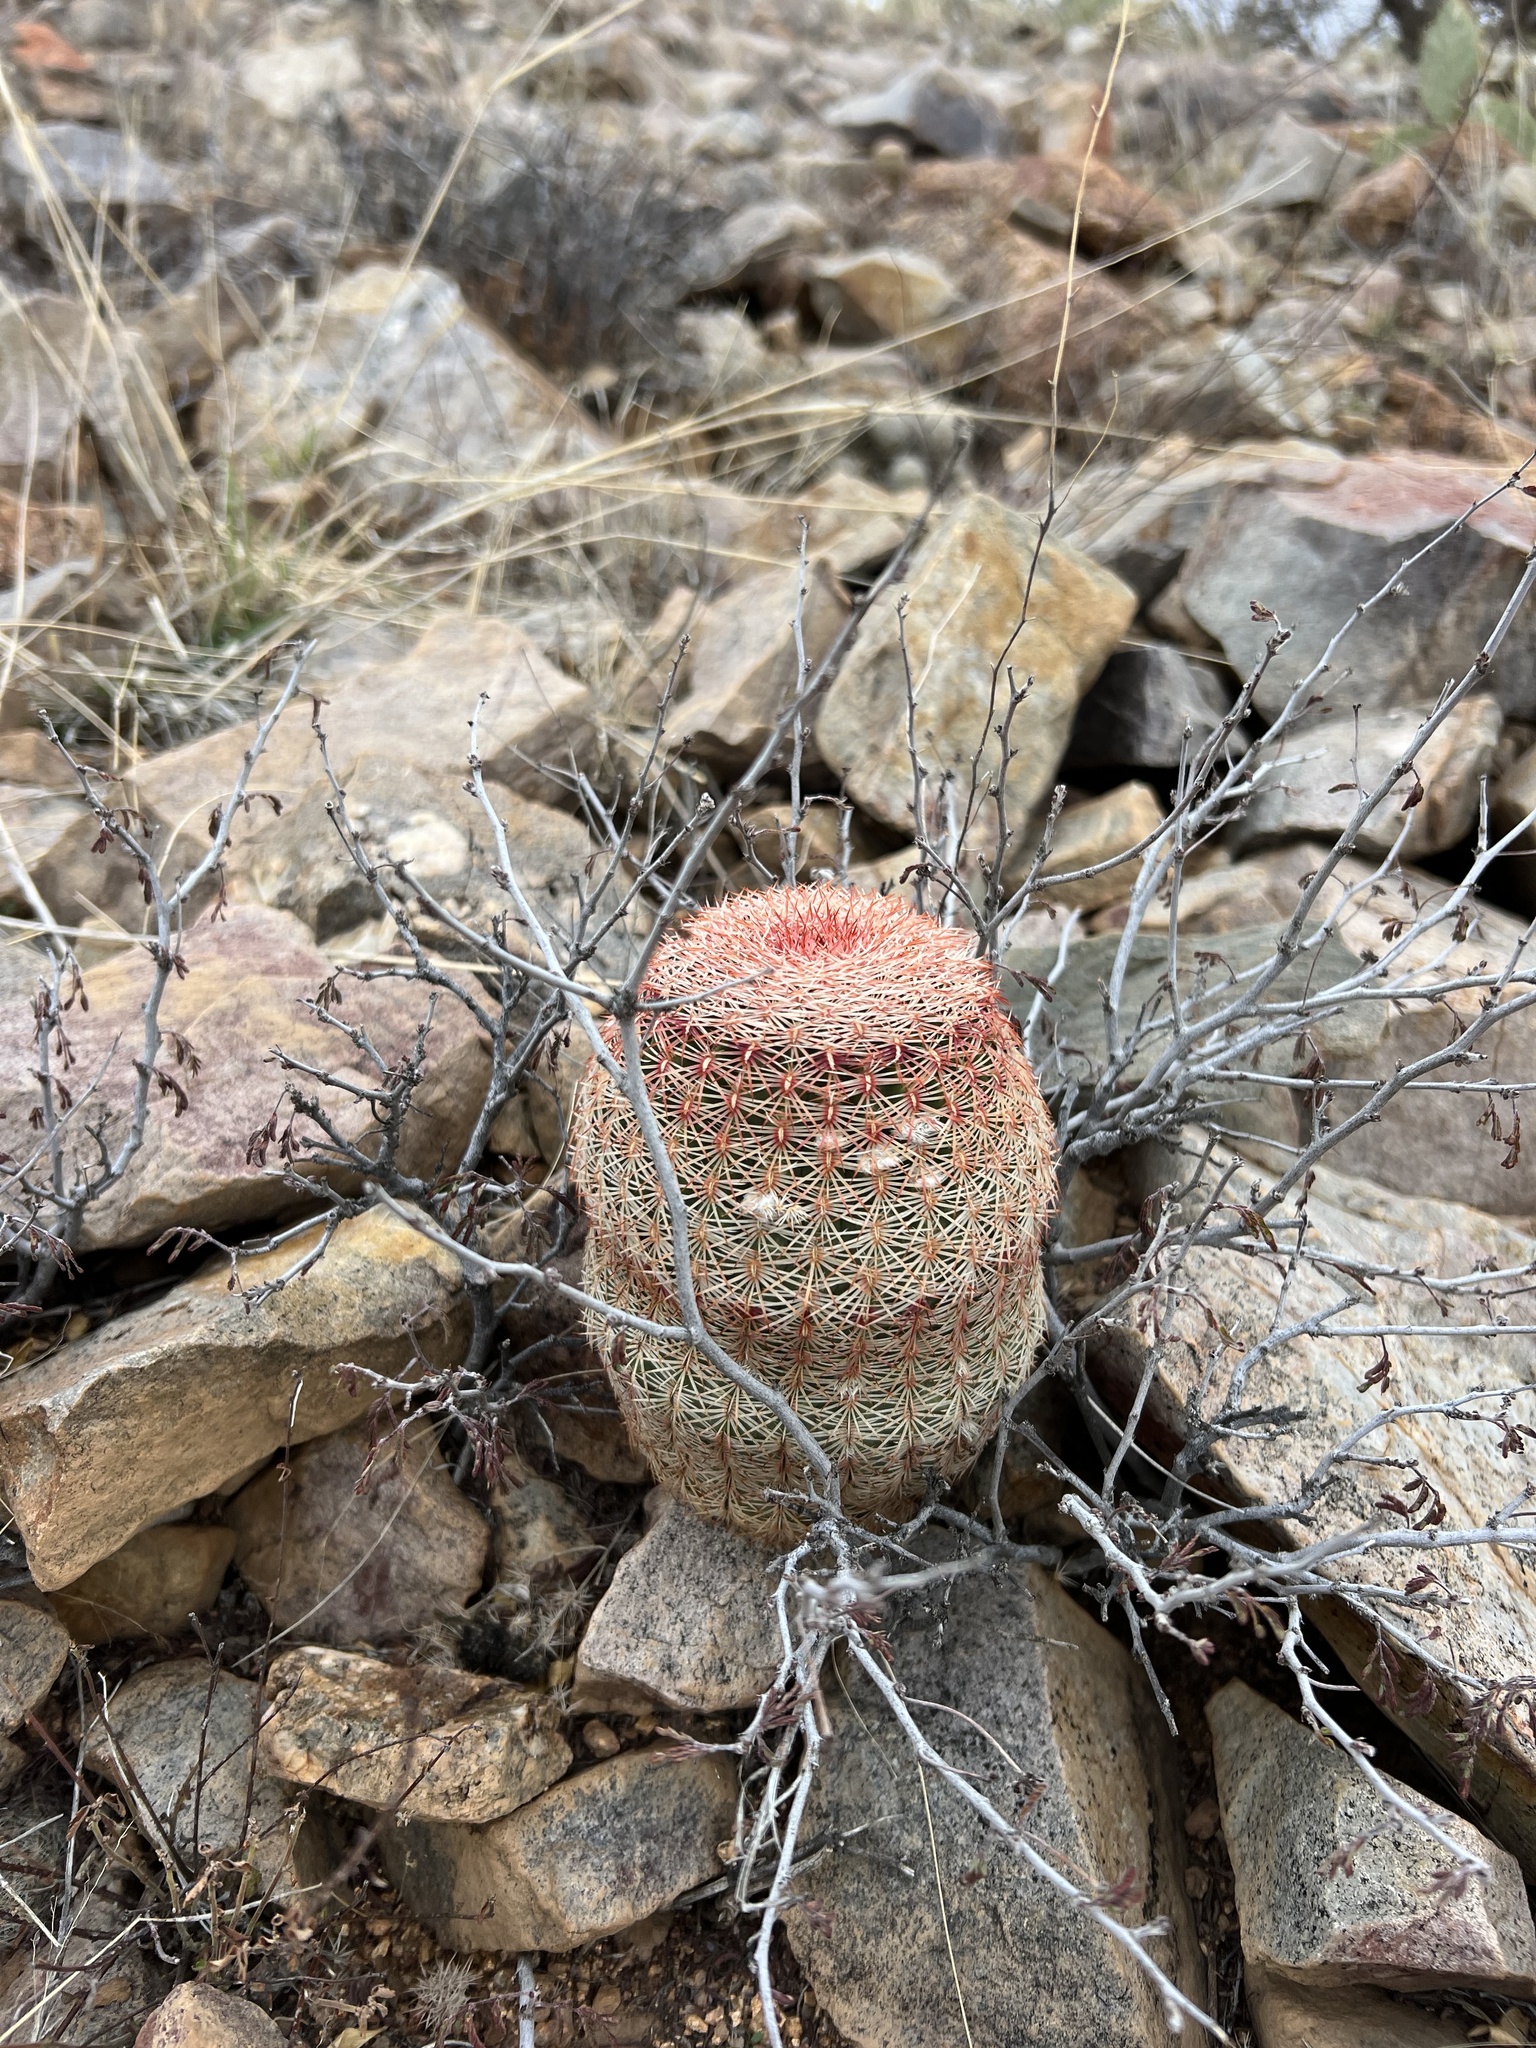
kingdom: Plantae
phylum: Tracheophyta
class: Magnoliopsida
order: Caryophyllales
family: Cactaceae
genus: Echinocereus
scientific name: Echinocereus rigidissimus
